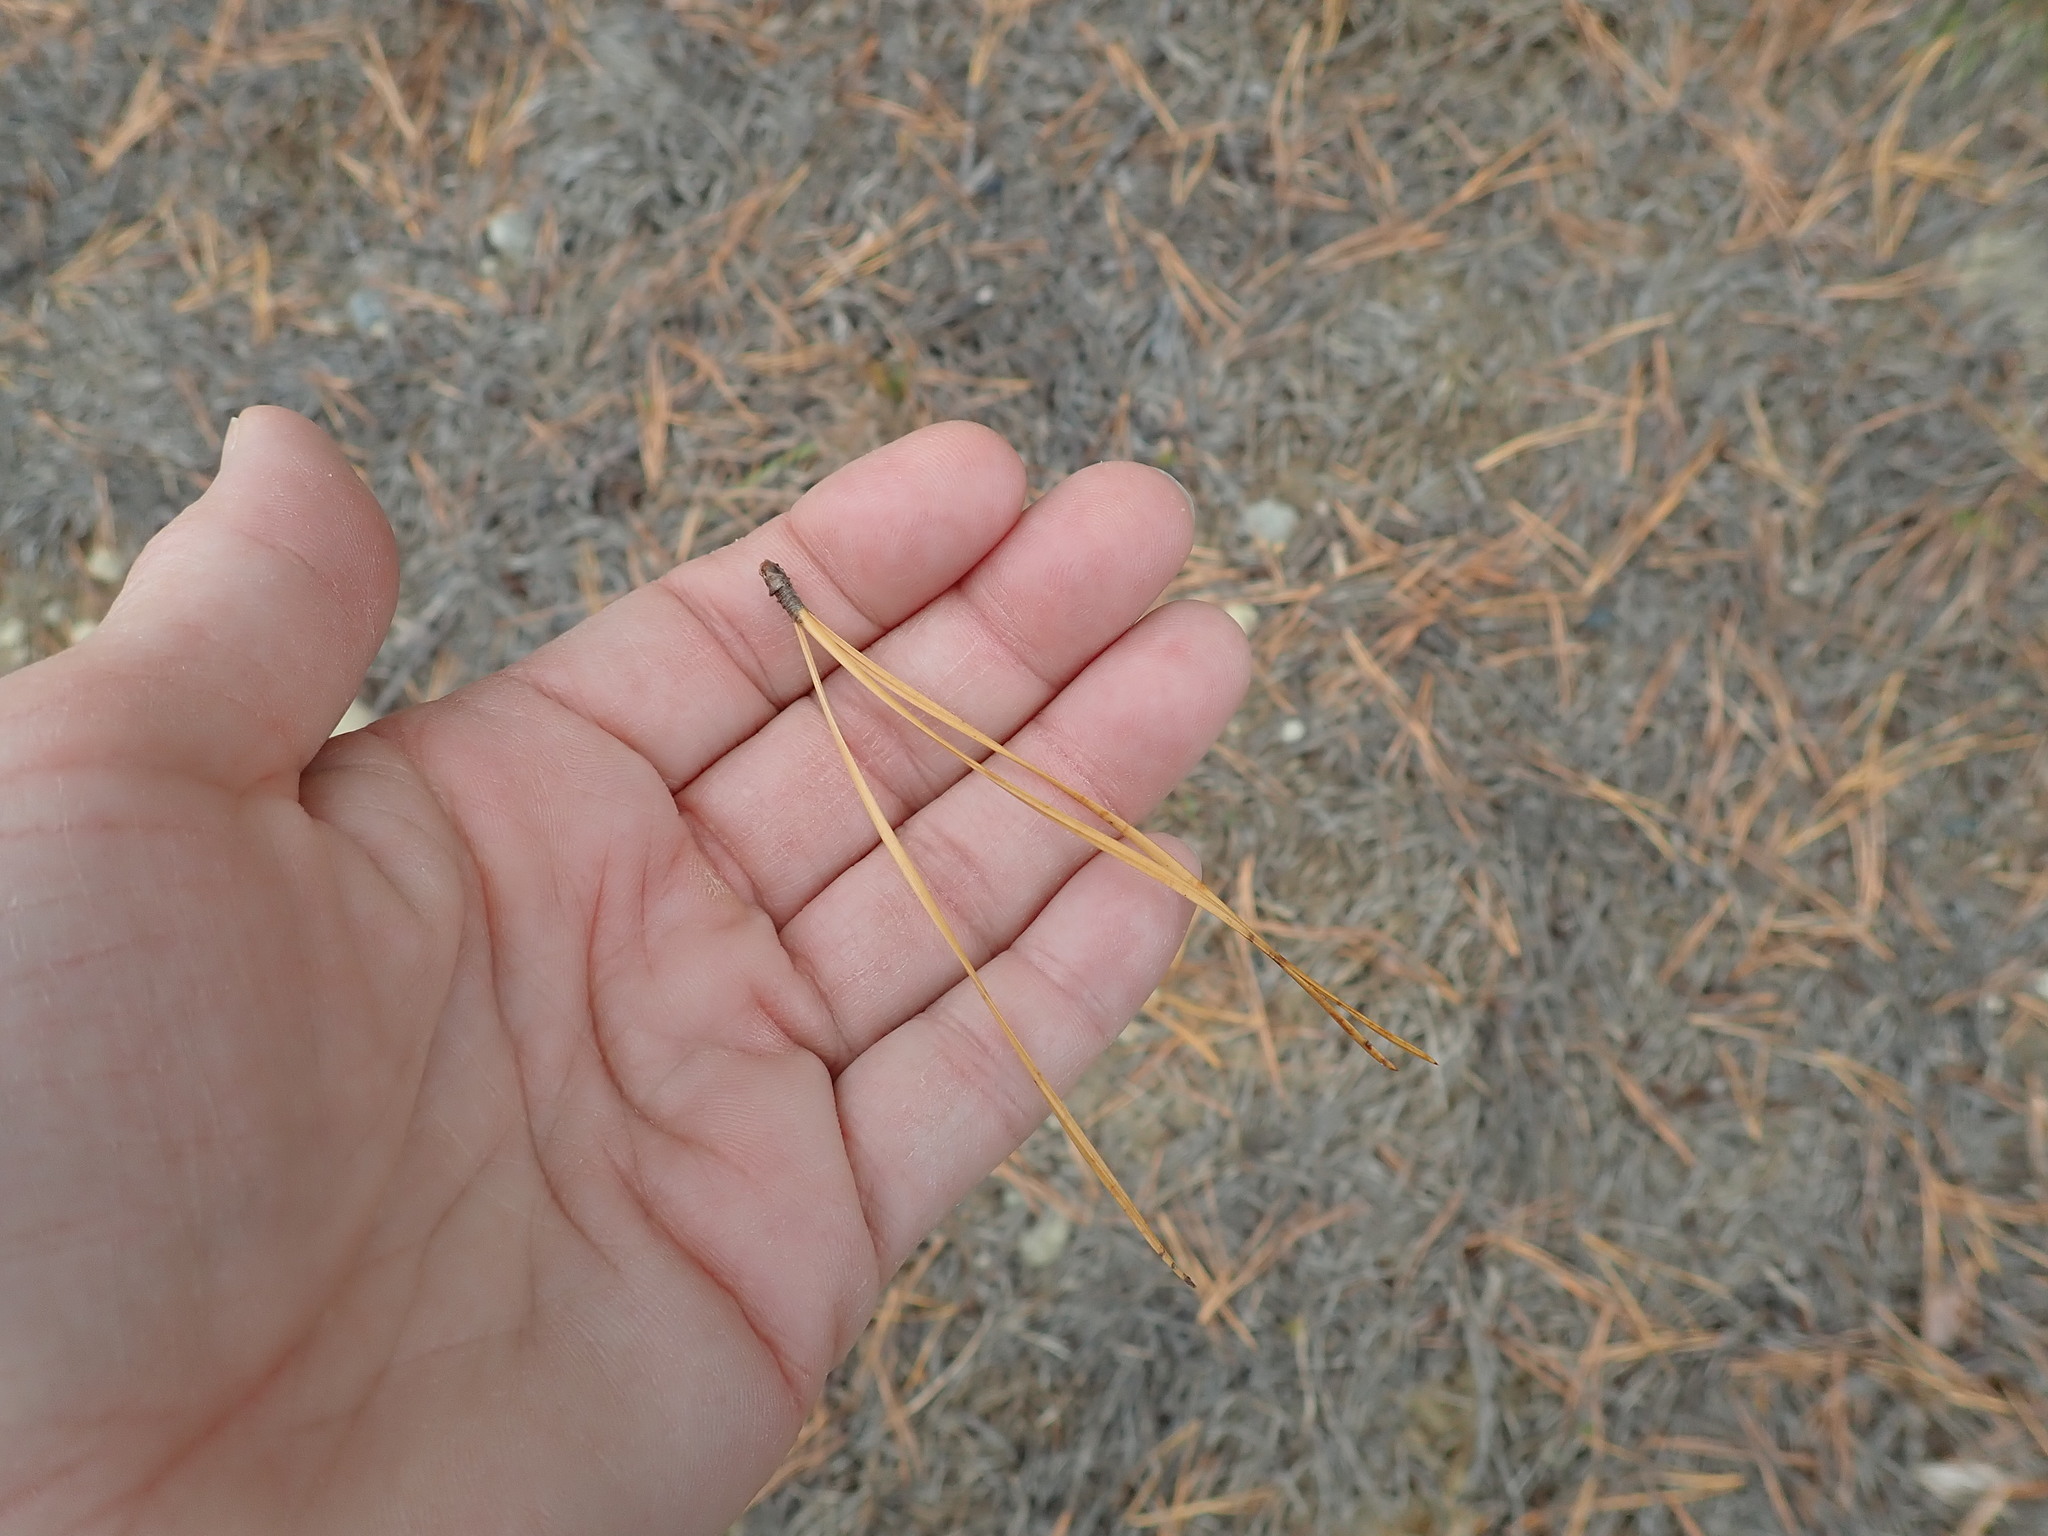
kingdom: Plantae
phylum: Tracheophyta
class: Pinopsida
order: Pinales
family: Pinaceae
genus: Pinus
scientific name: Pinus rigida
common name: Pitch pine
